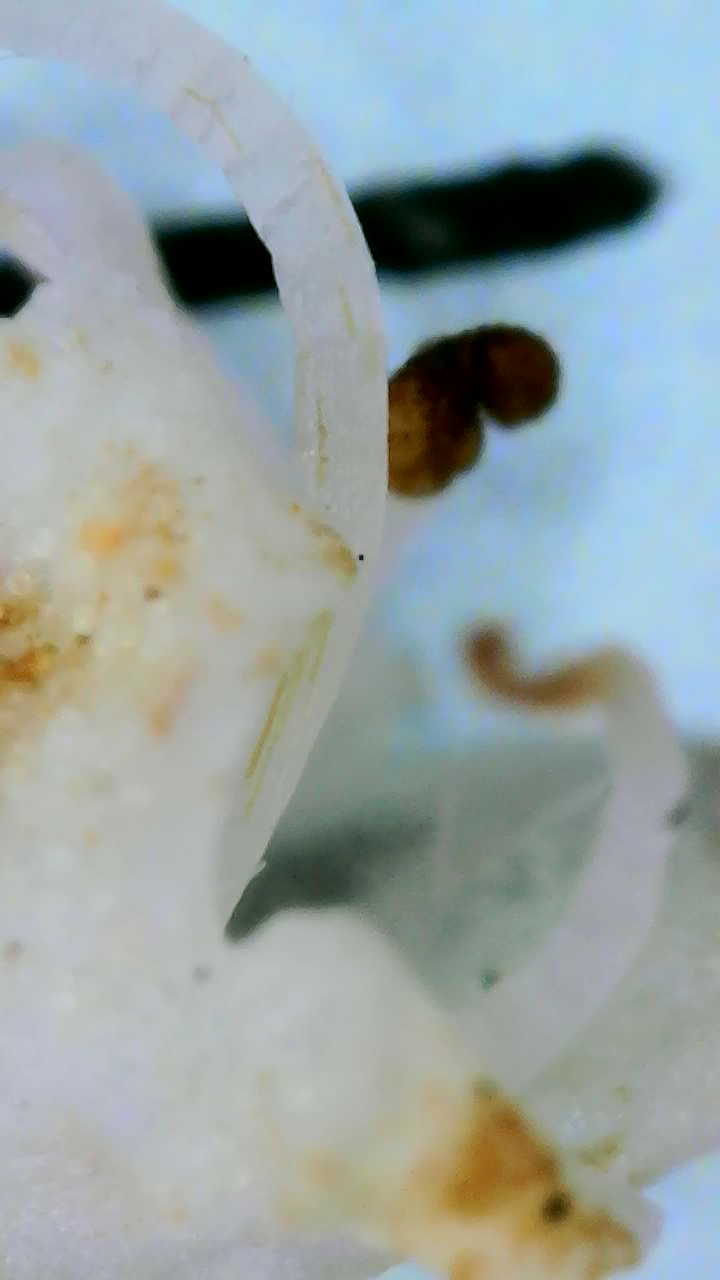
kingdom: Plantae
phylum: Tracheophyta
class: Magnoliopsida
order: Lamiales
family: Lamiaceae
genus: Lycopus
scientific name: Lycopus americanus
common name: American bugleweed
